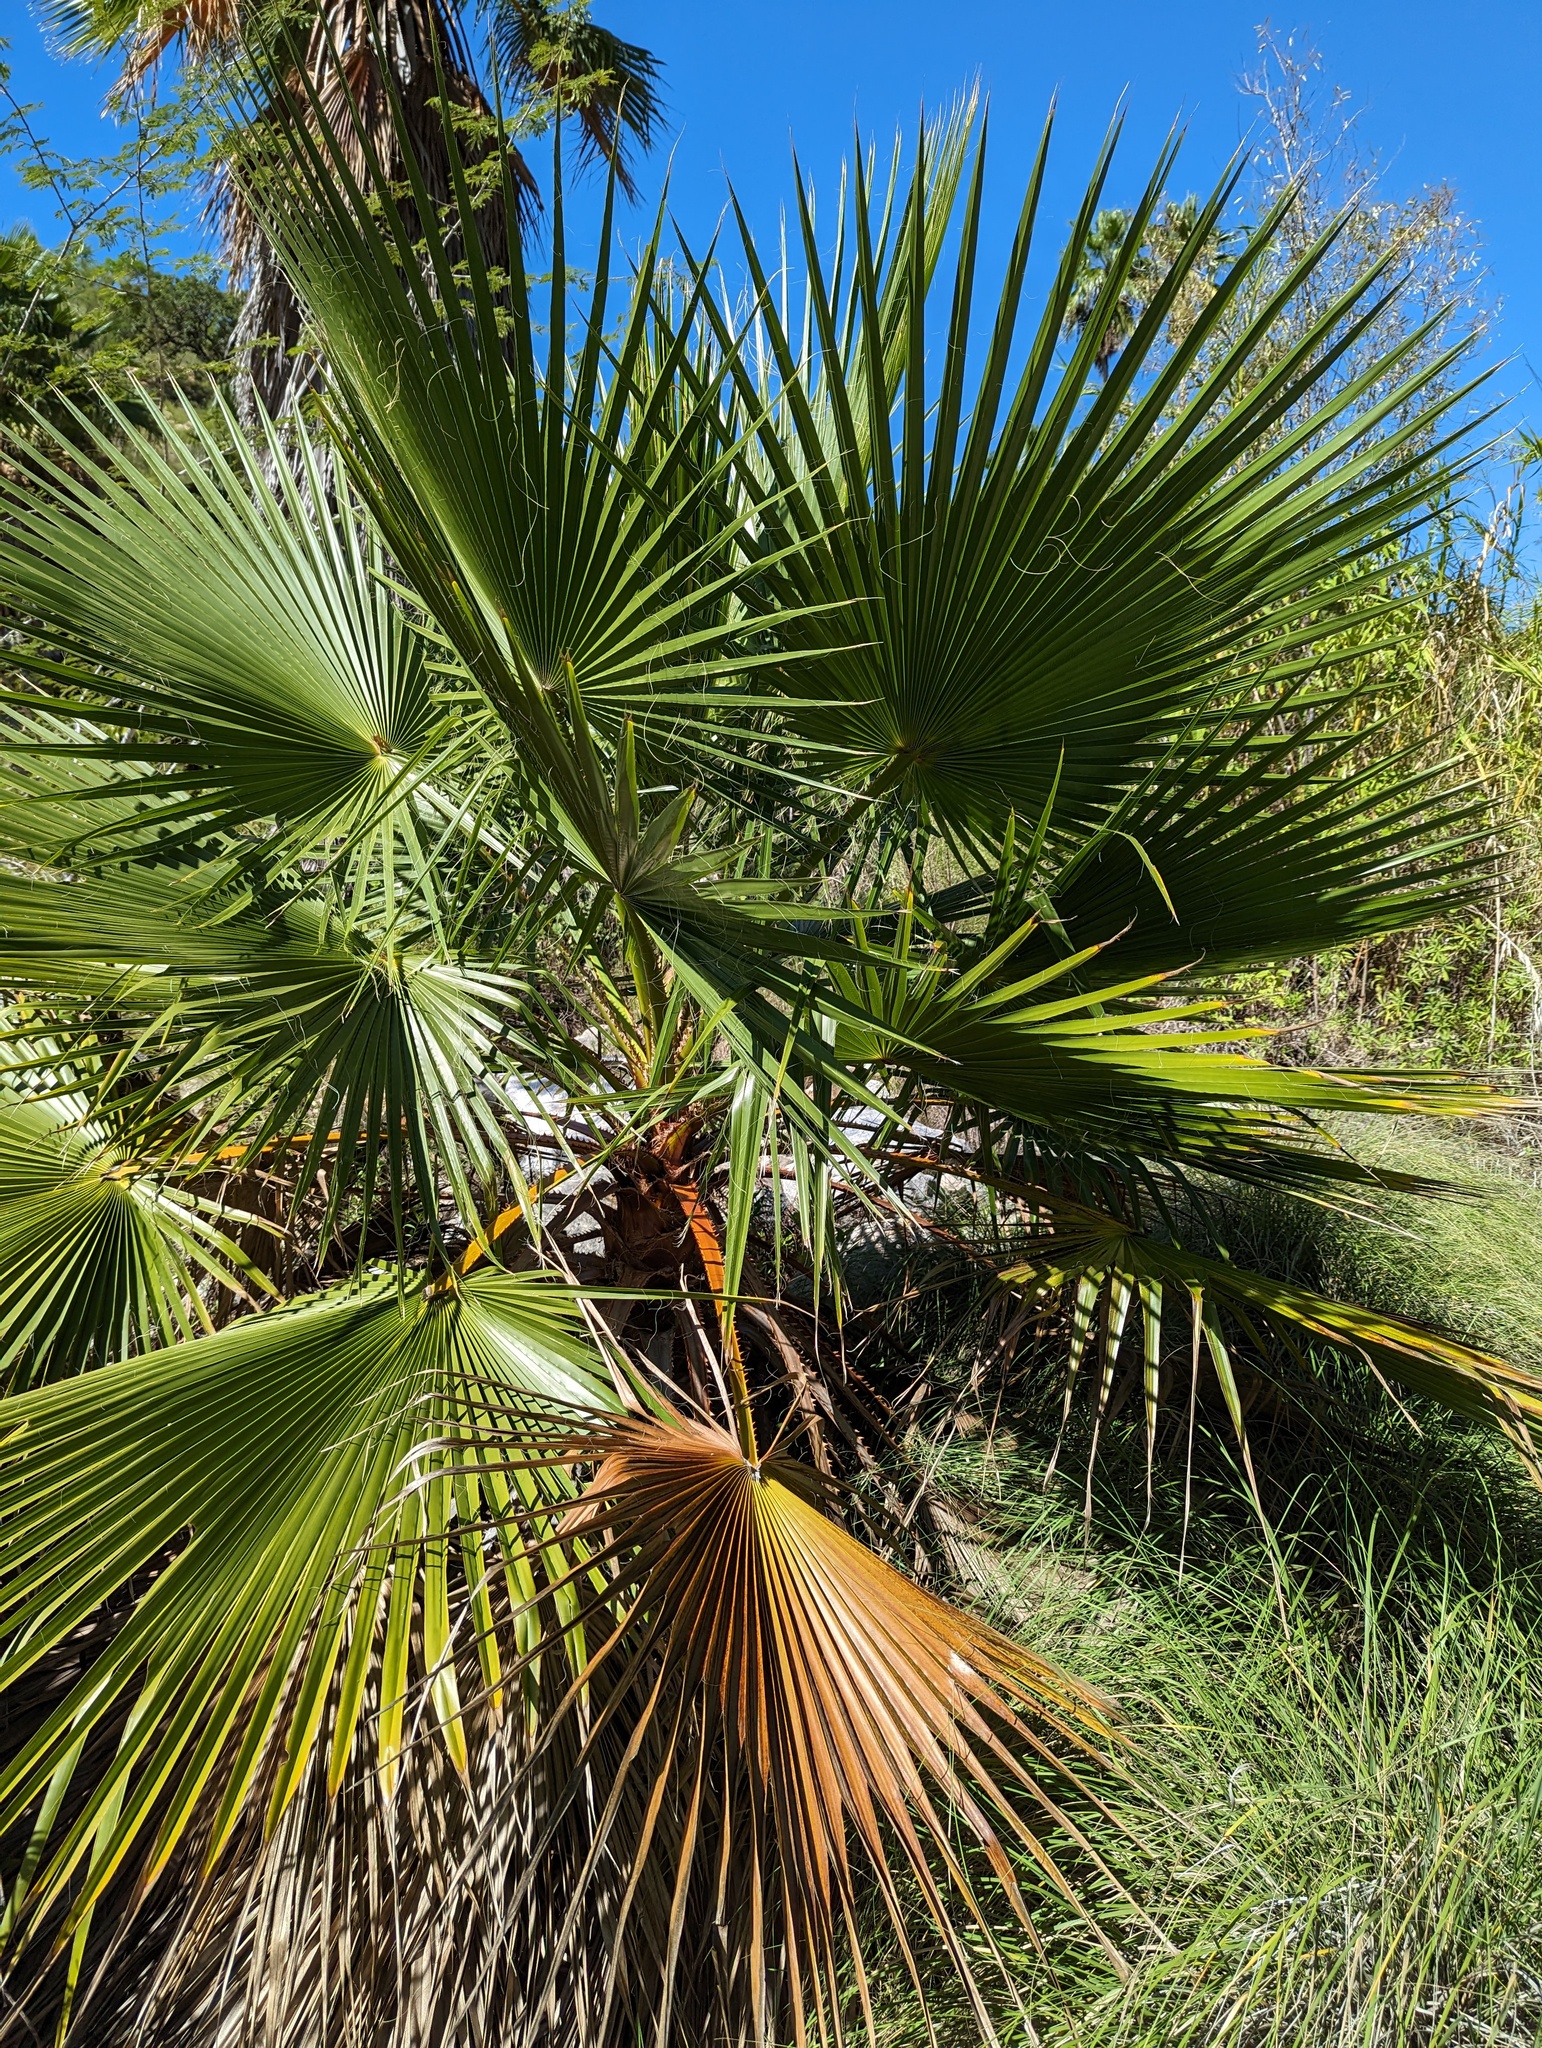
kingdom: Plantae
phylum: Tracheophyta
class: Liliopsida
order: Arecales
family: Arecaceae
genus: Washingtonia
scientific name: Washingtonia robusta
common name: Mexican fan palm
